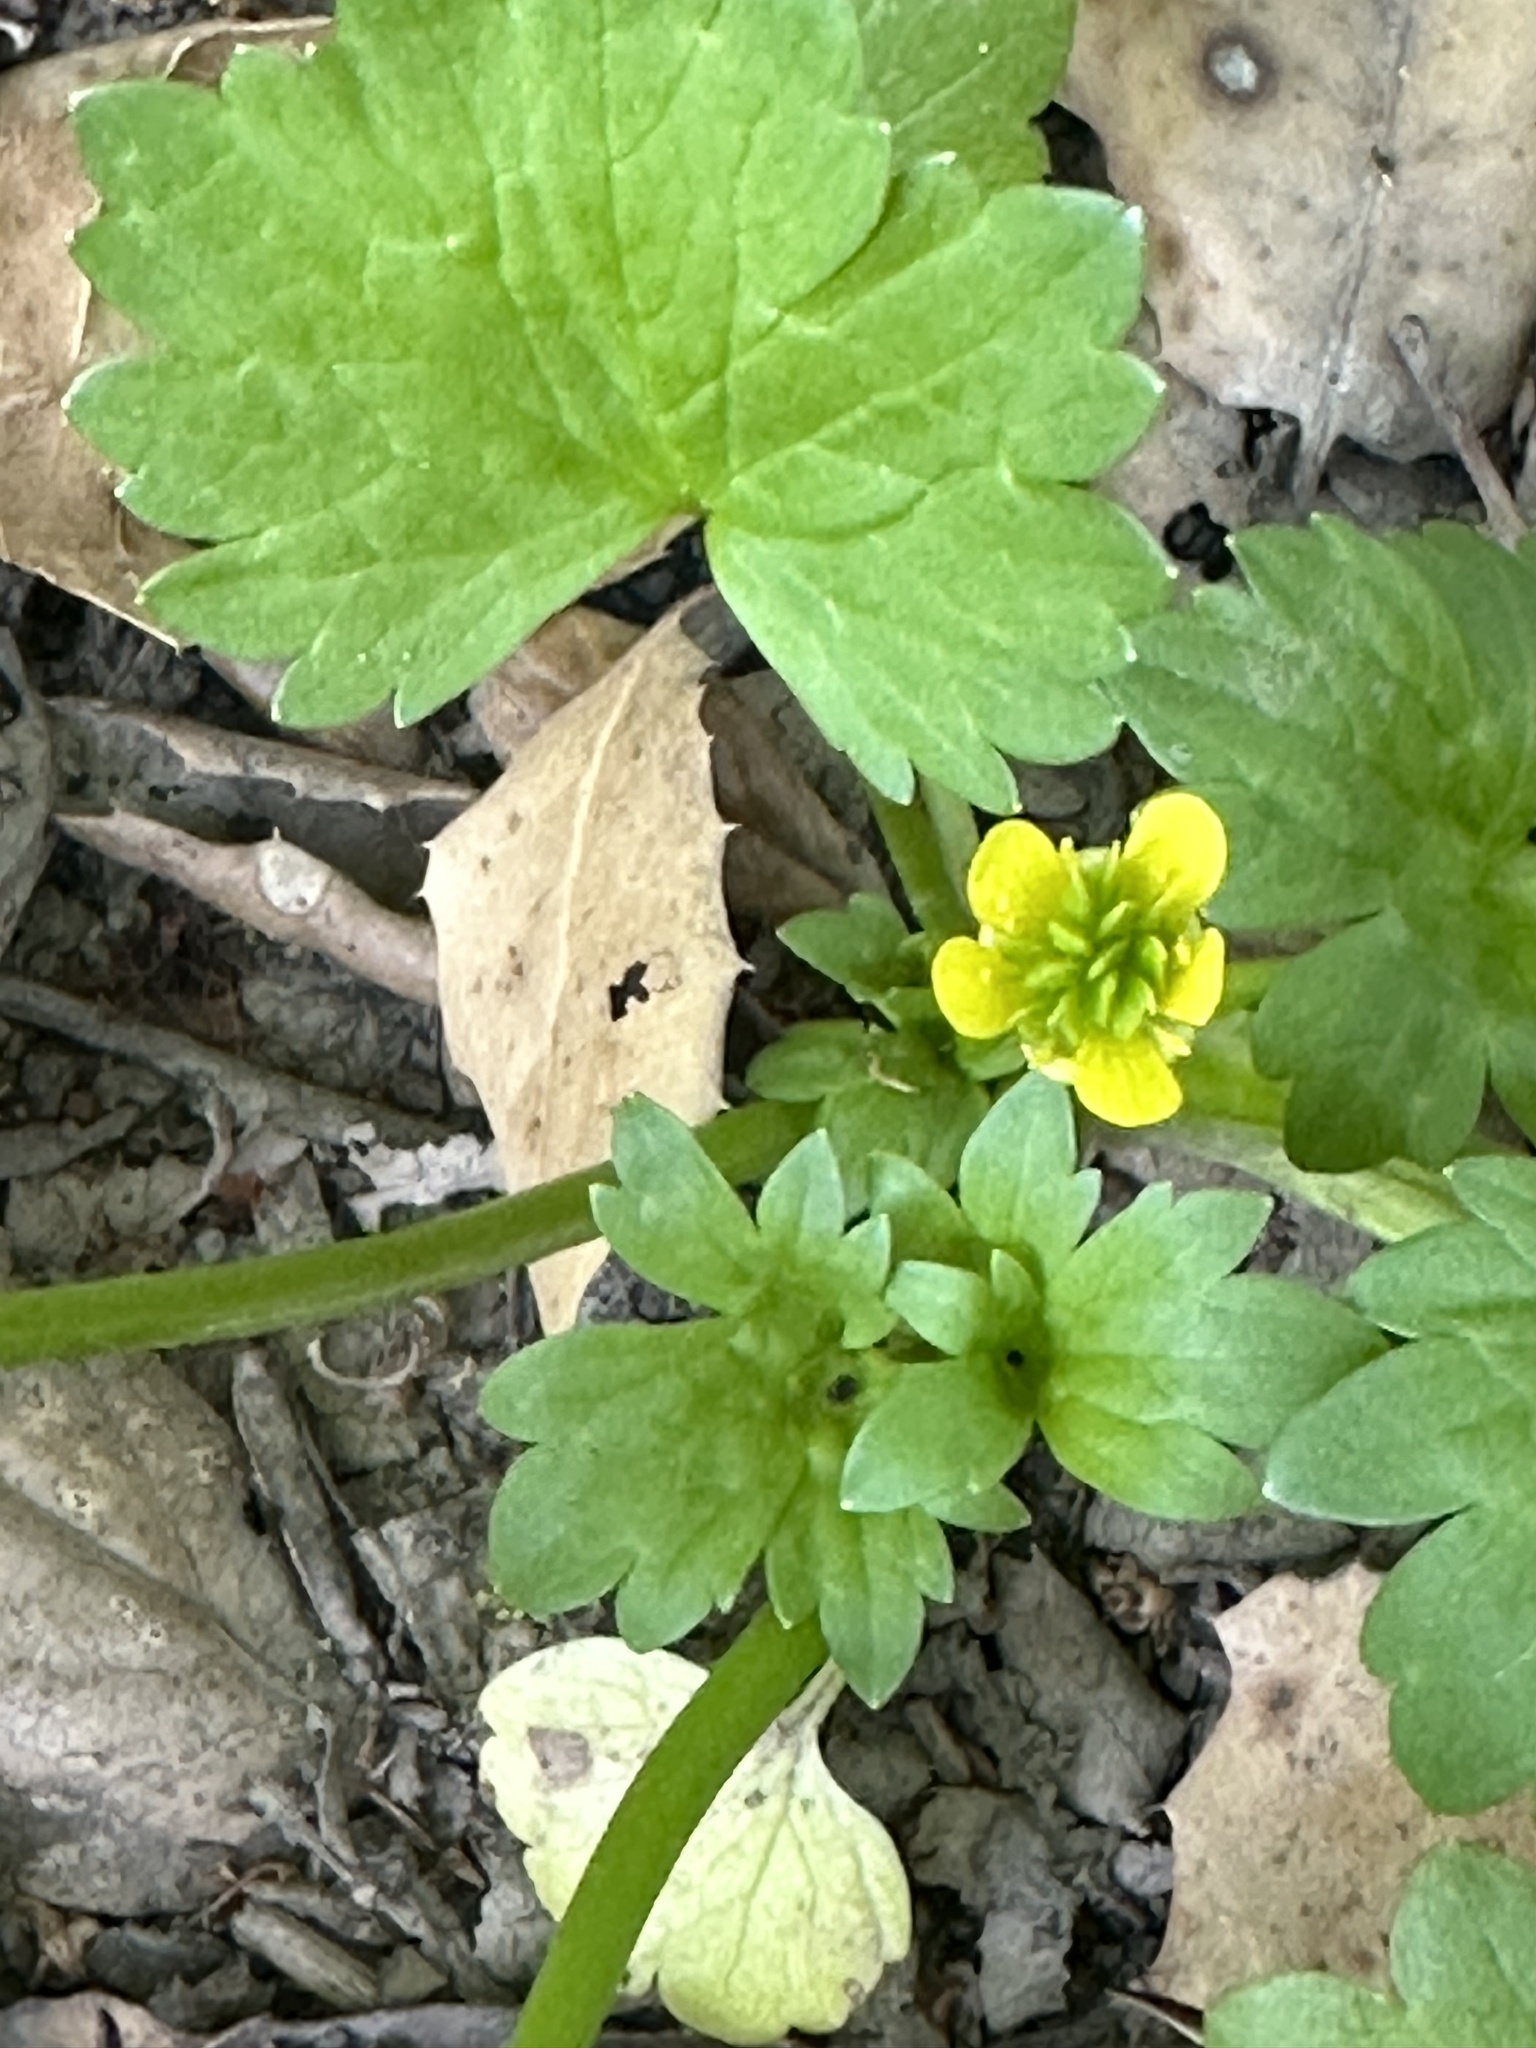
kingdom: Plantae
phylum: Tracheophyta
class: Magnoliopsida
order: Ranunculales
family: Ranunculaceae
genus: Ranunculus
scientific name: Ranunculus muricatus
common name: Rough-fruited buttercup
